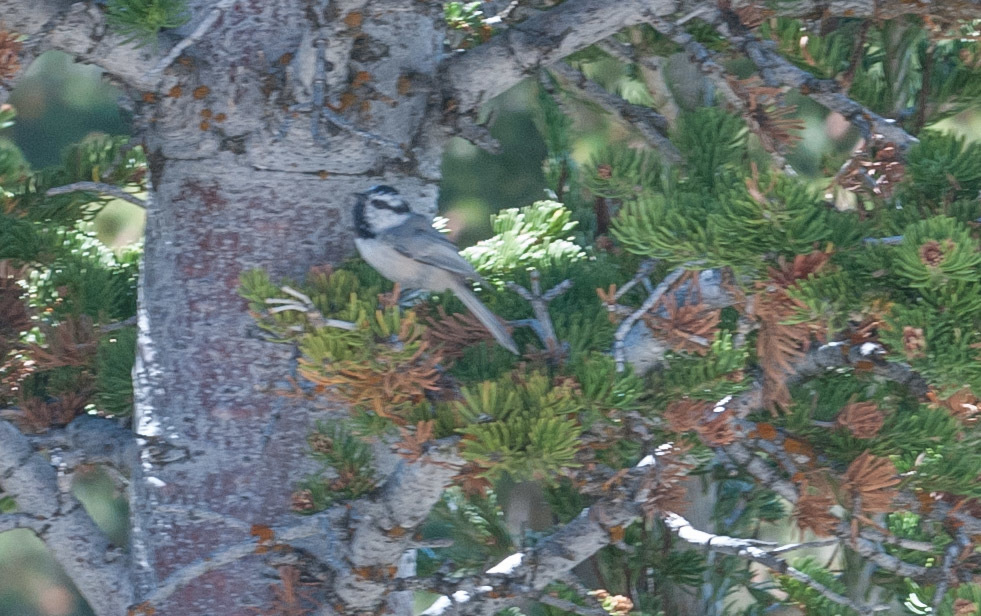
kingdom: Animalia
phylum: Chordata
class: Aves
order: Passeriformes
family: Paridae
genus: Poecile
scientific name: Poecile gambeli
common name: Mountain chickadee
